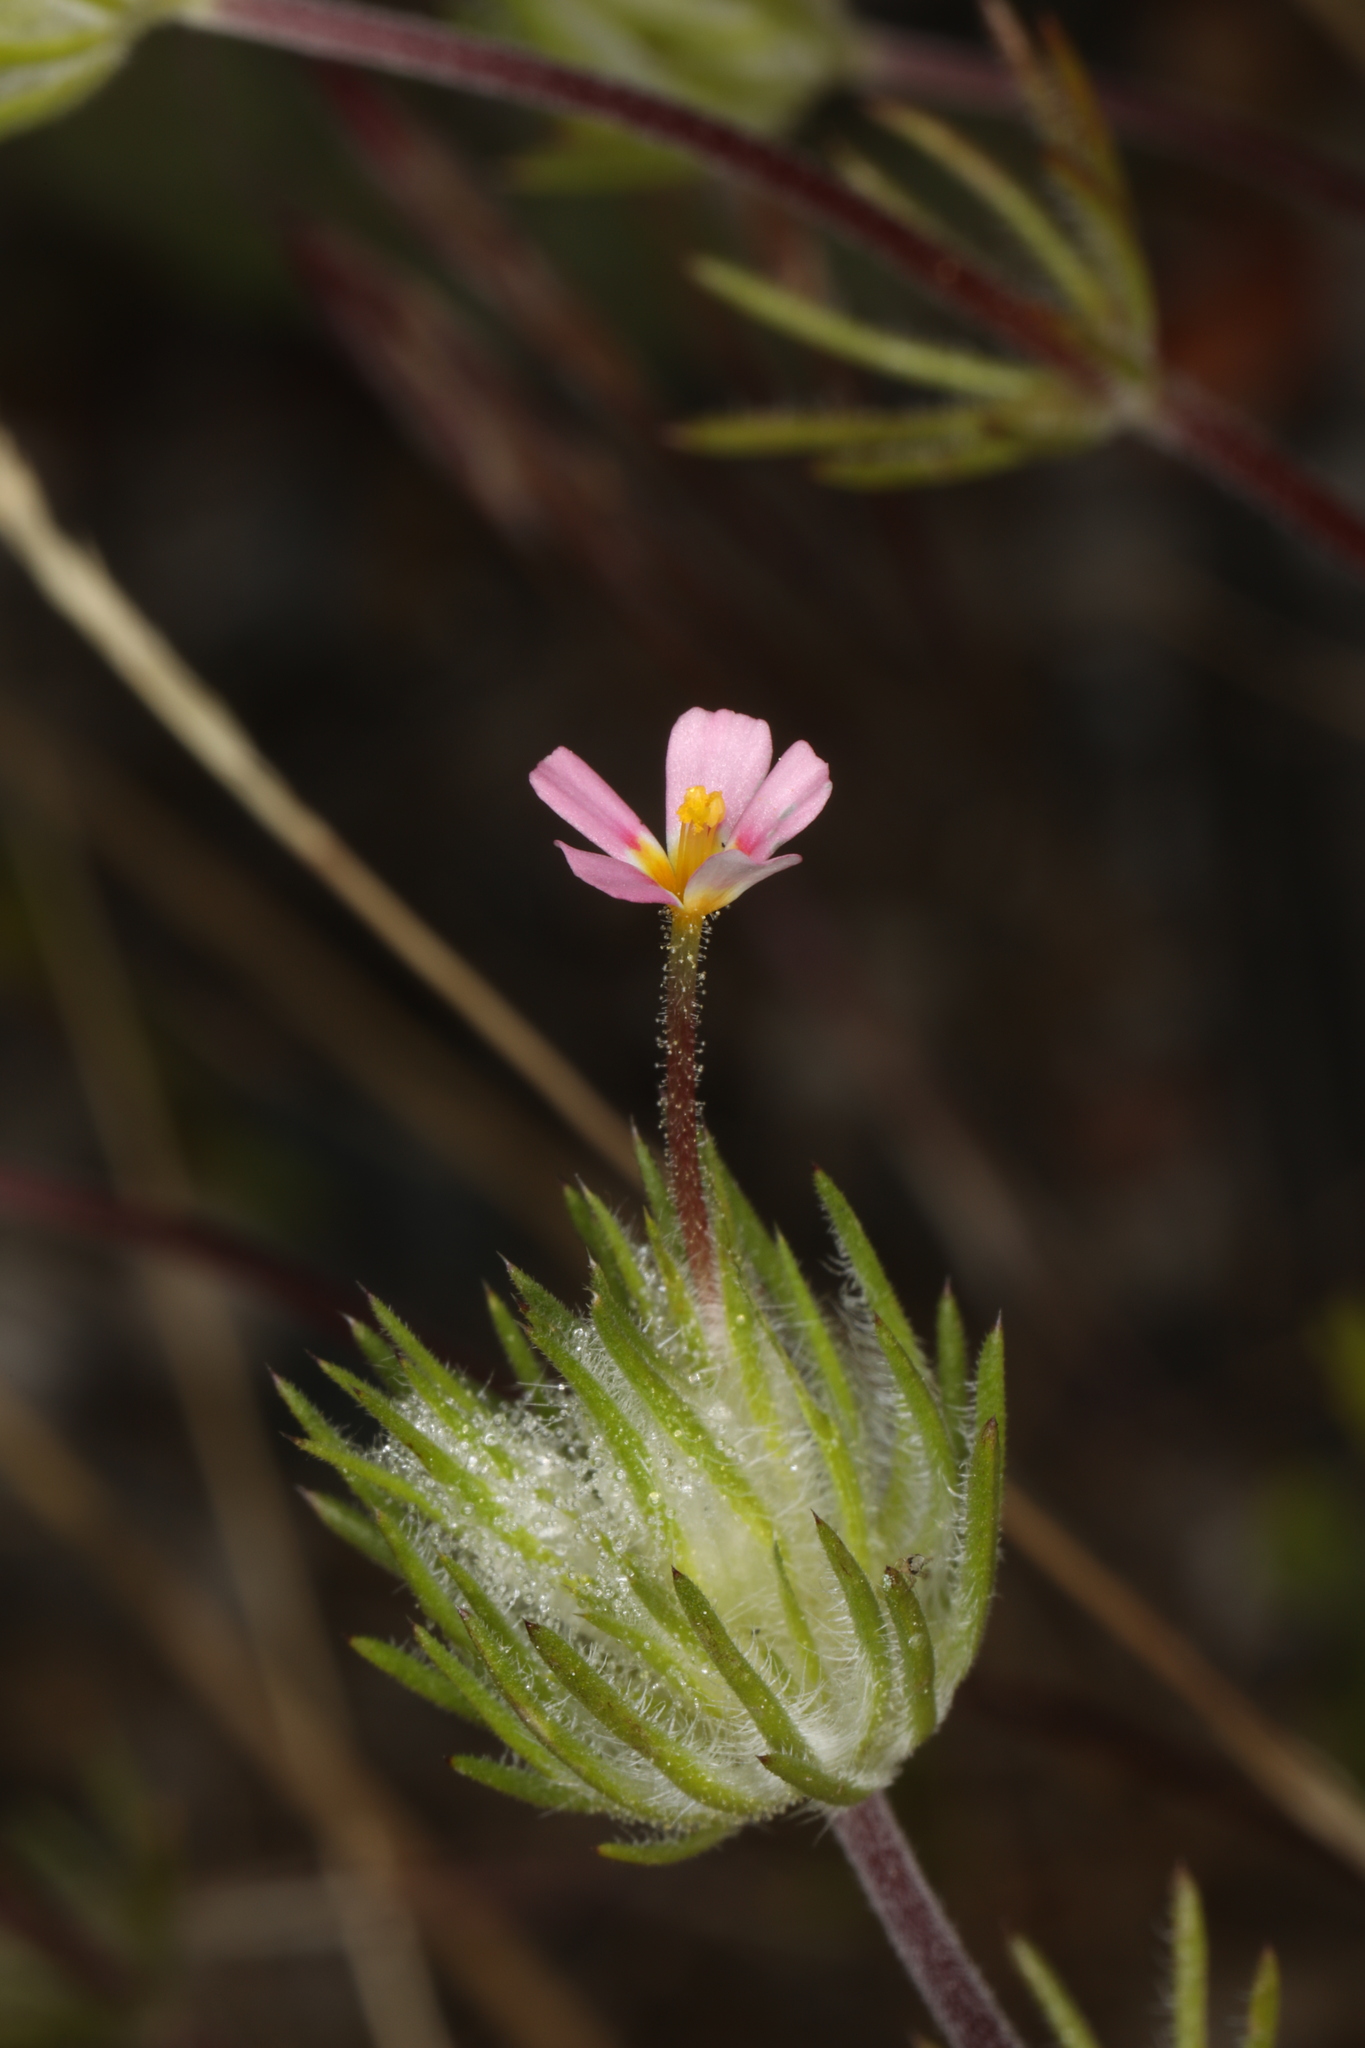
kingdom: Plantae
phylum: Tracheophyta
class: Magnoliopsida
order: Ericales
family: Polemoniaceae
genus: Leptosiphon
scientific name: Leptosiphon ciliatus
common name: Whiskerbrush
